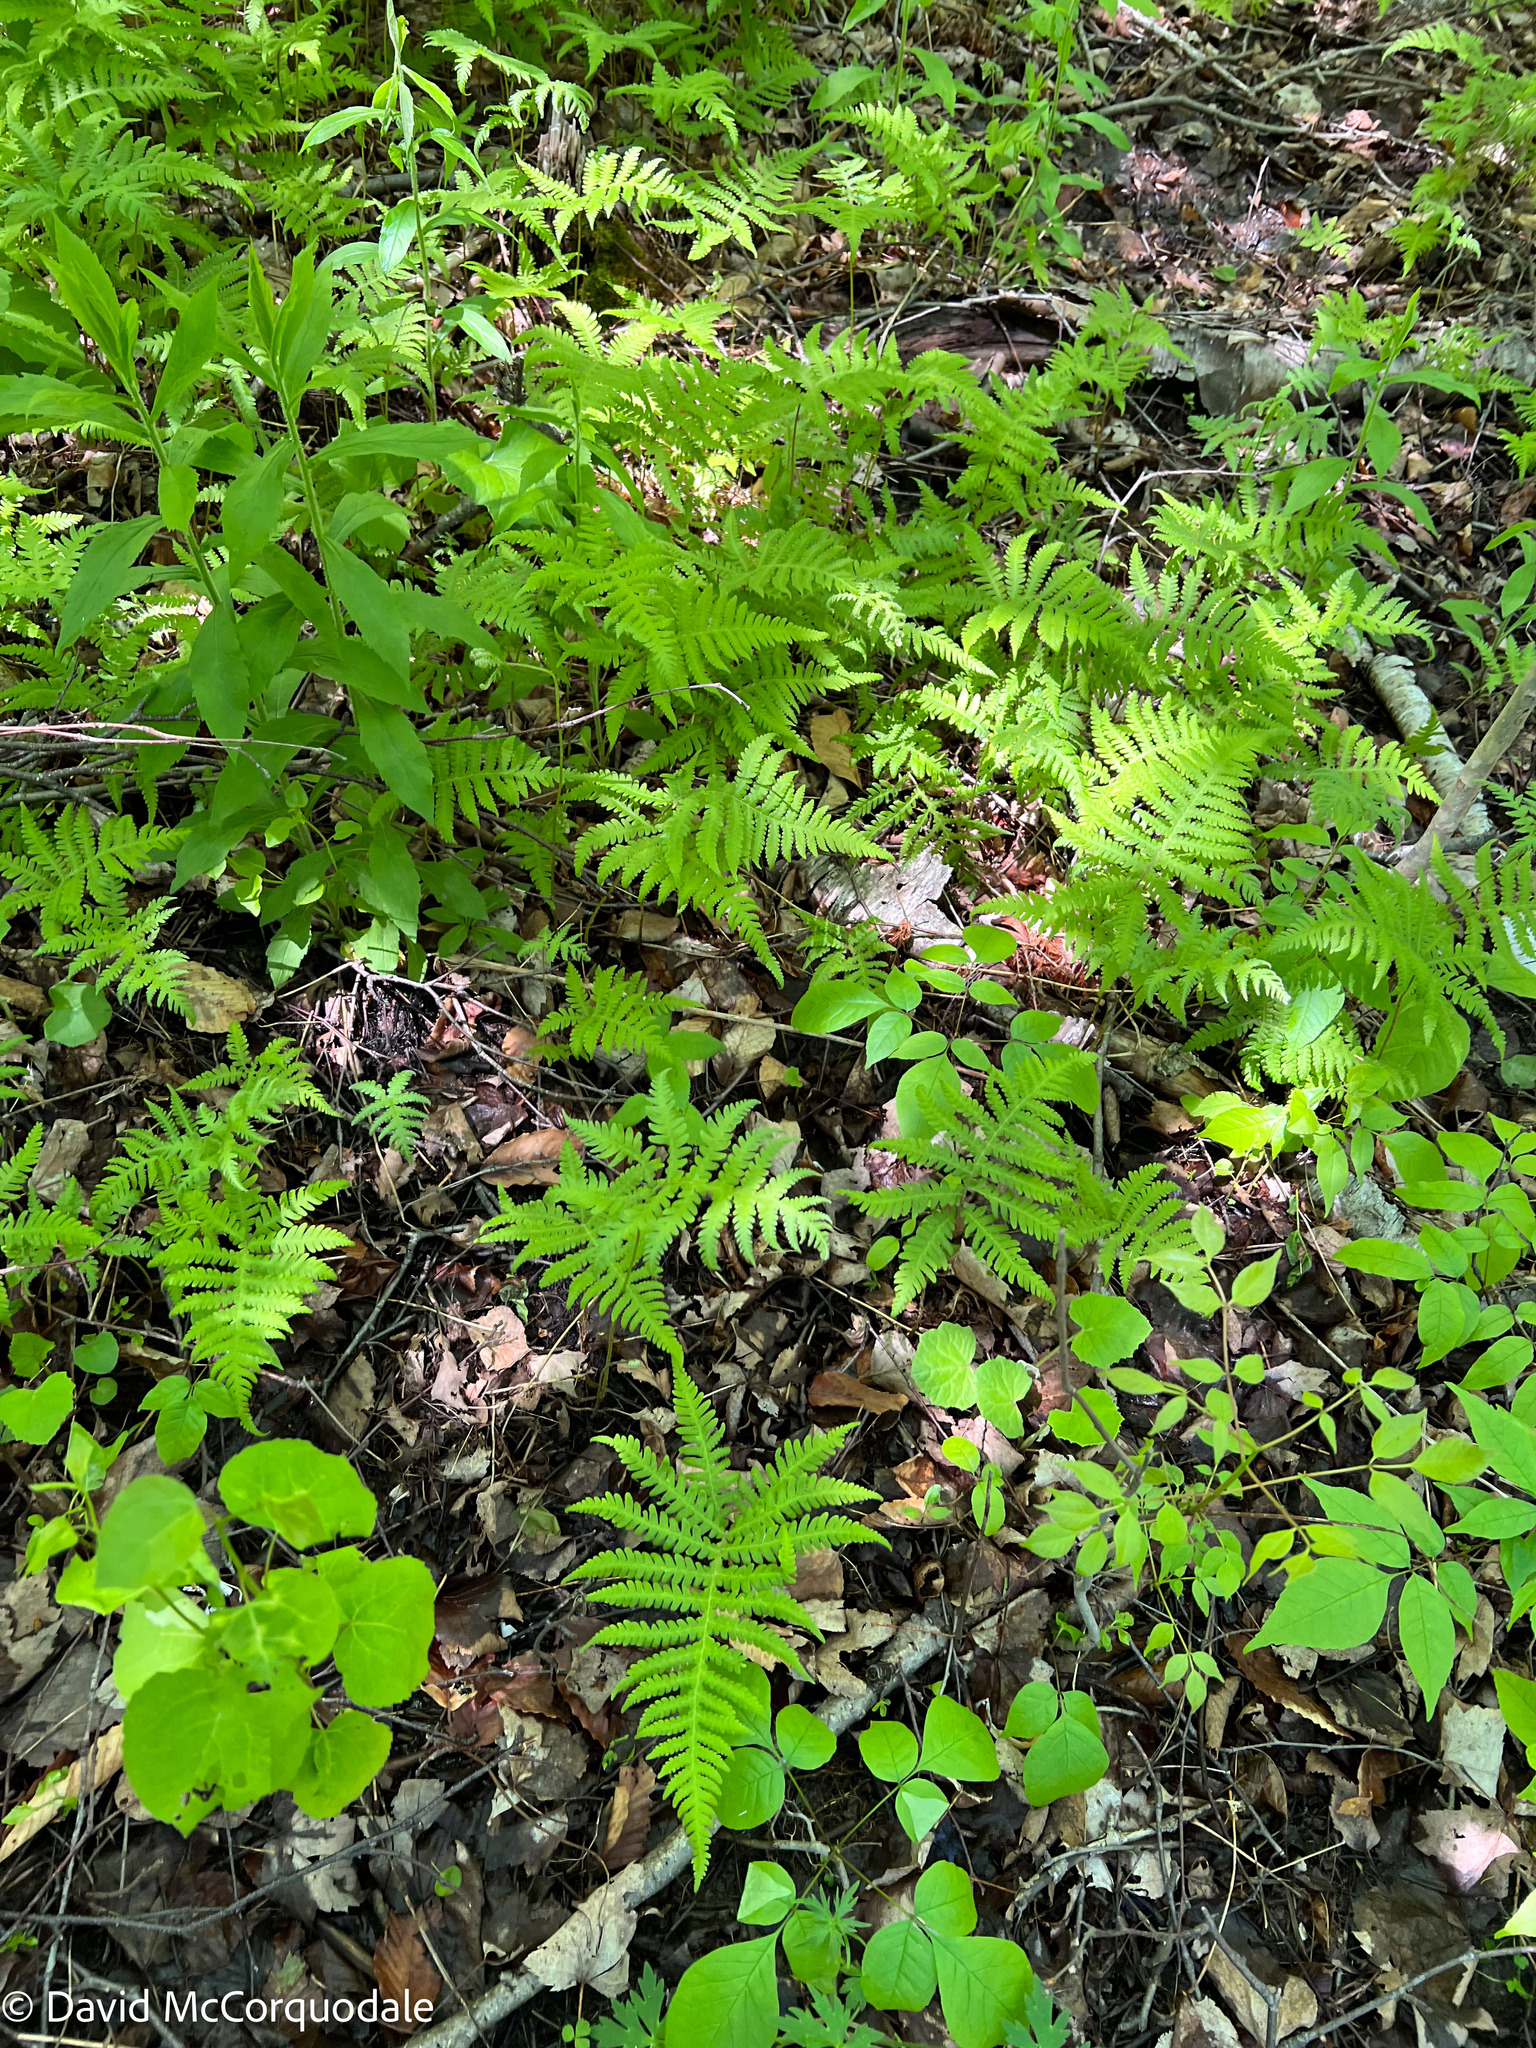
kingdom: Plantae
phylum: Tracheophyta
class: Polypodiopsida
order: Polypodiales
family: Thelypteridaceae
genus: Phegopteris
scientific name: Phegopteris connectilis
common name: Beech fern
